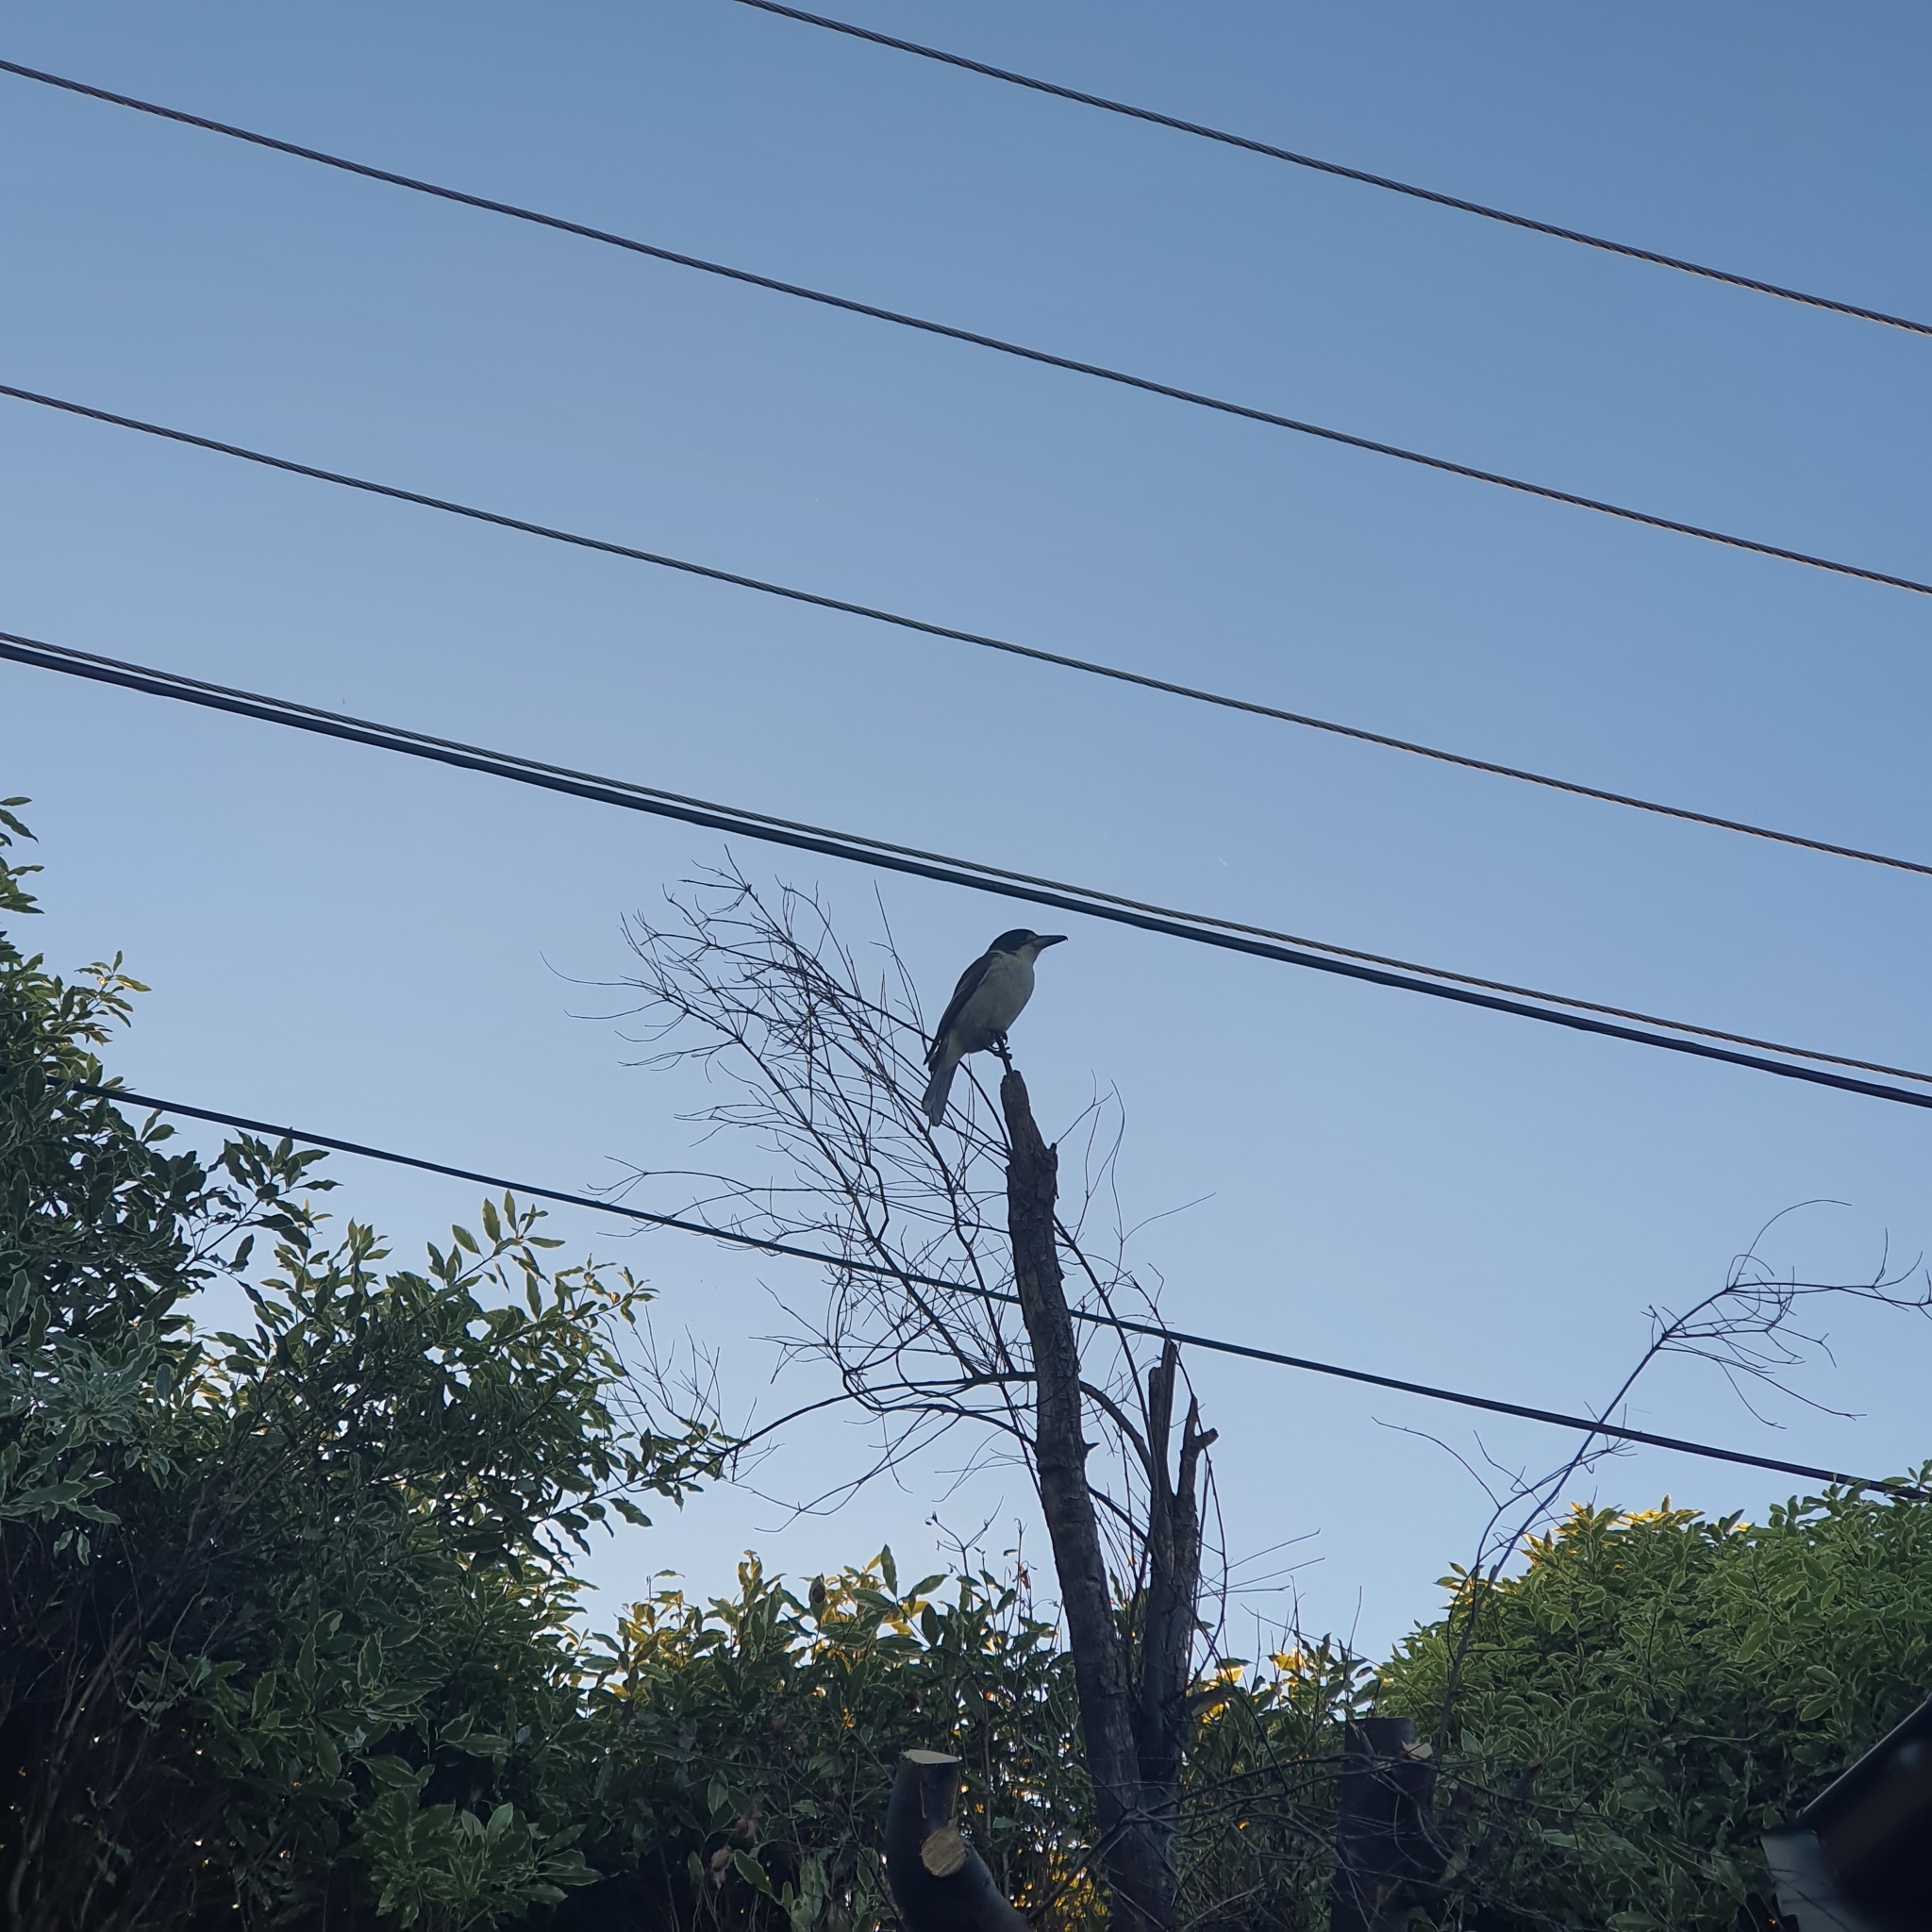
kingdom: Animalia
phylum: Chordata
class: Aves
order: Passeriformes
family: Cracticidae
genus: Cracticus
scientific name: Cracticus torquatus
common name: Grey butcherbird
